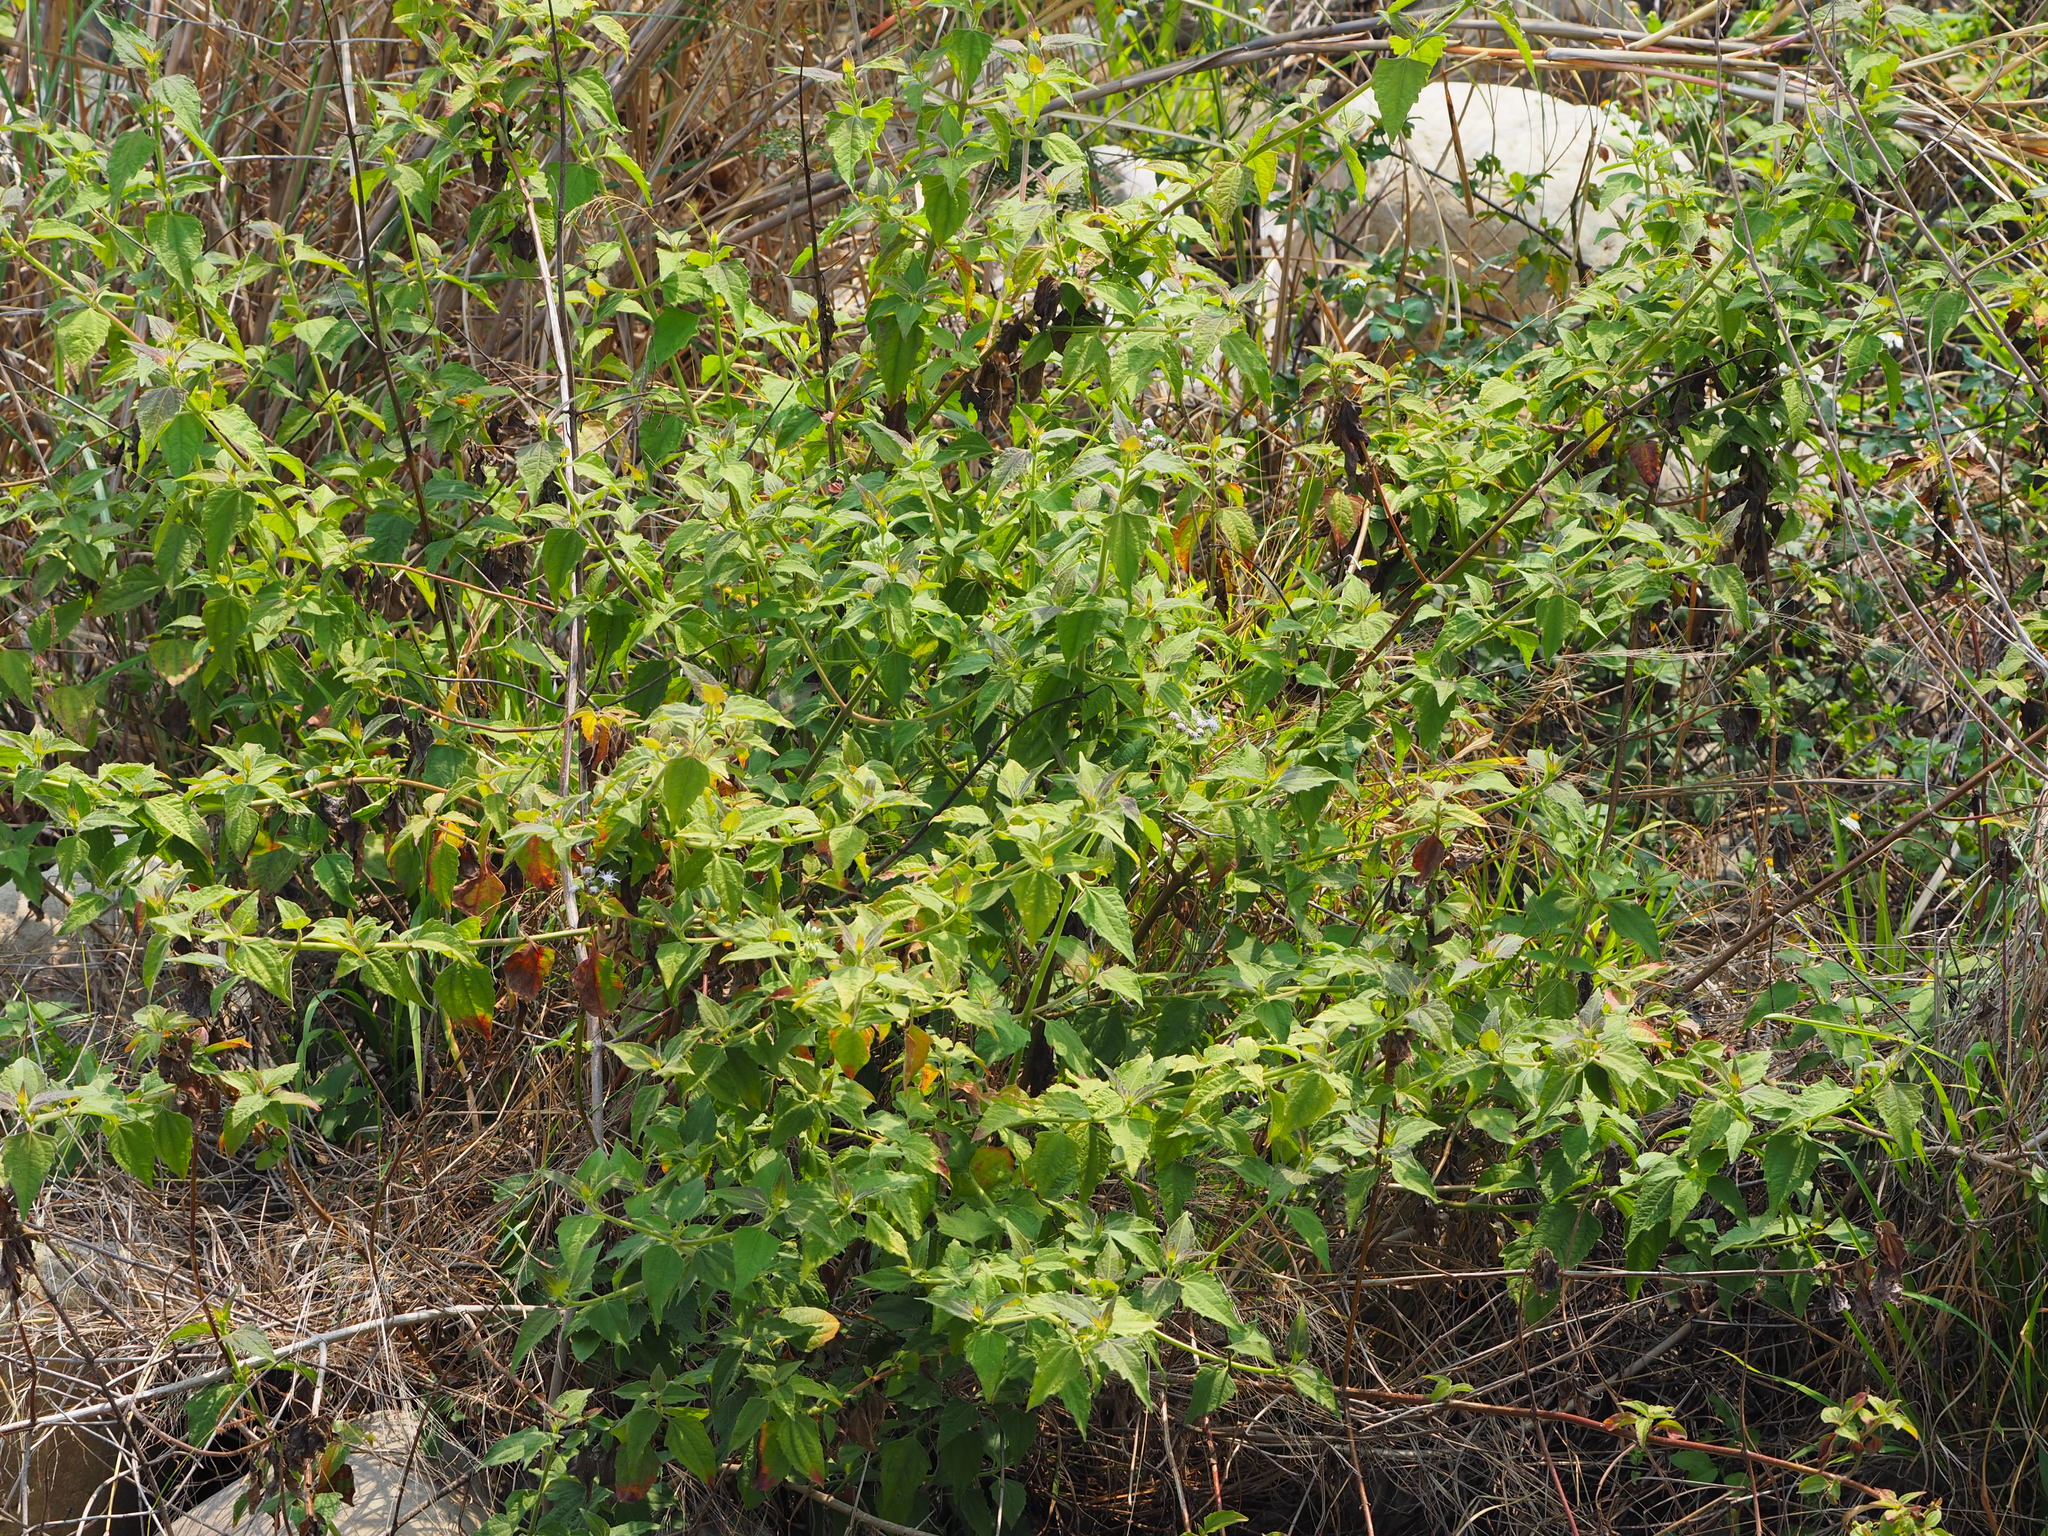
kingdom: Plantae
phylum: Tracheophyta
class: Magnoliopsida
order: Asterales
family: Asteraceae
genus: Chromolaena
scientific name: Chromolaena odorata
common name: Siamweed
